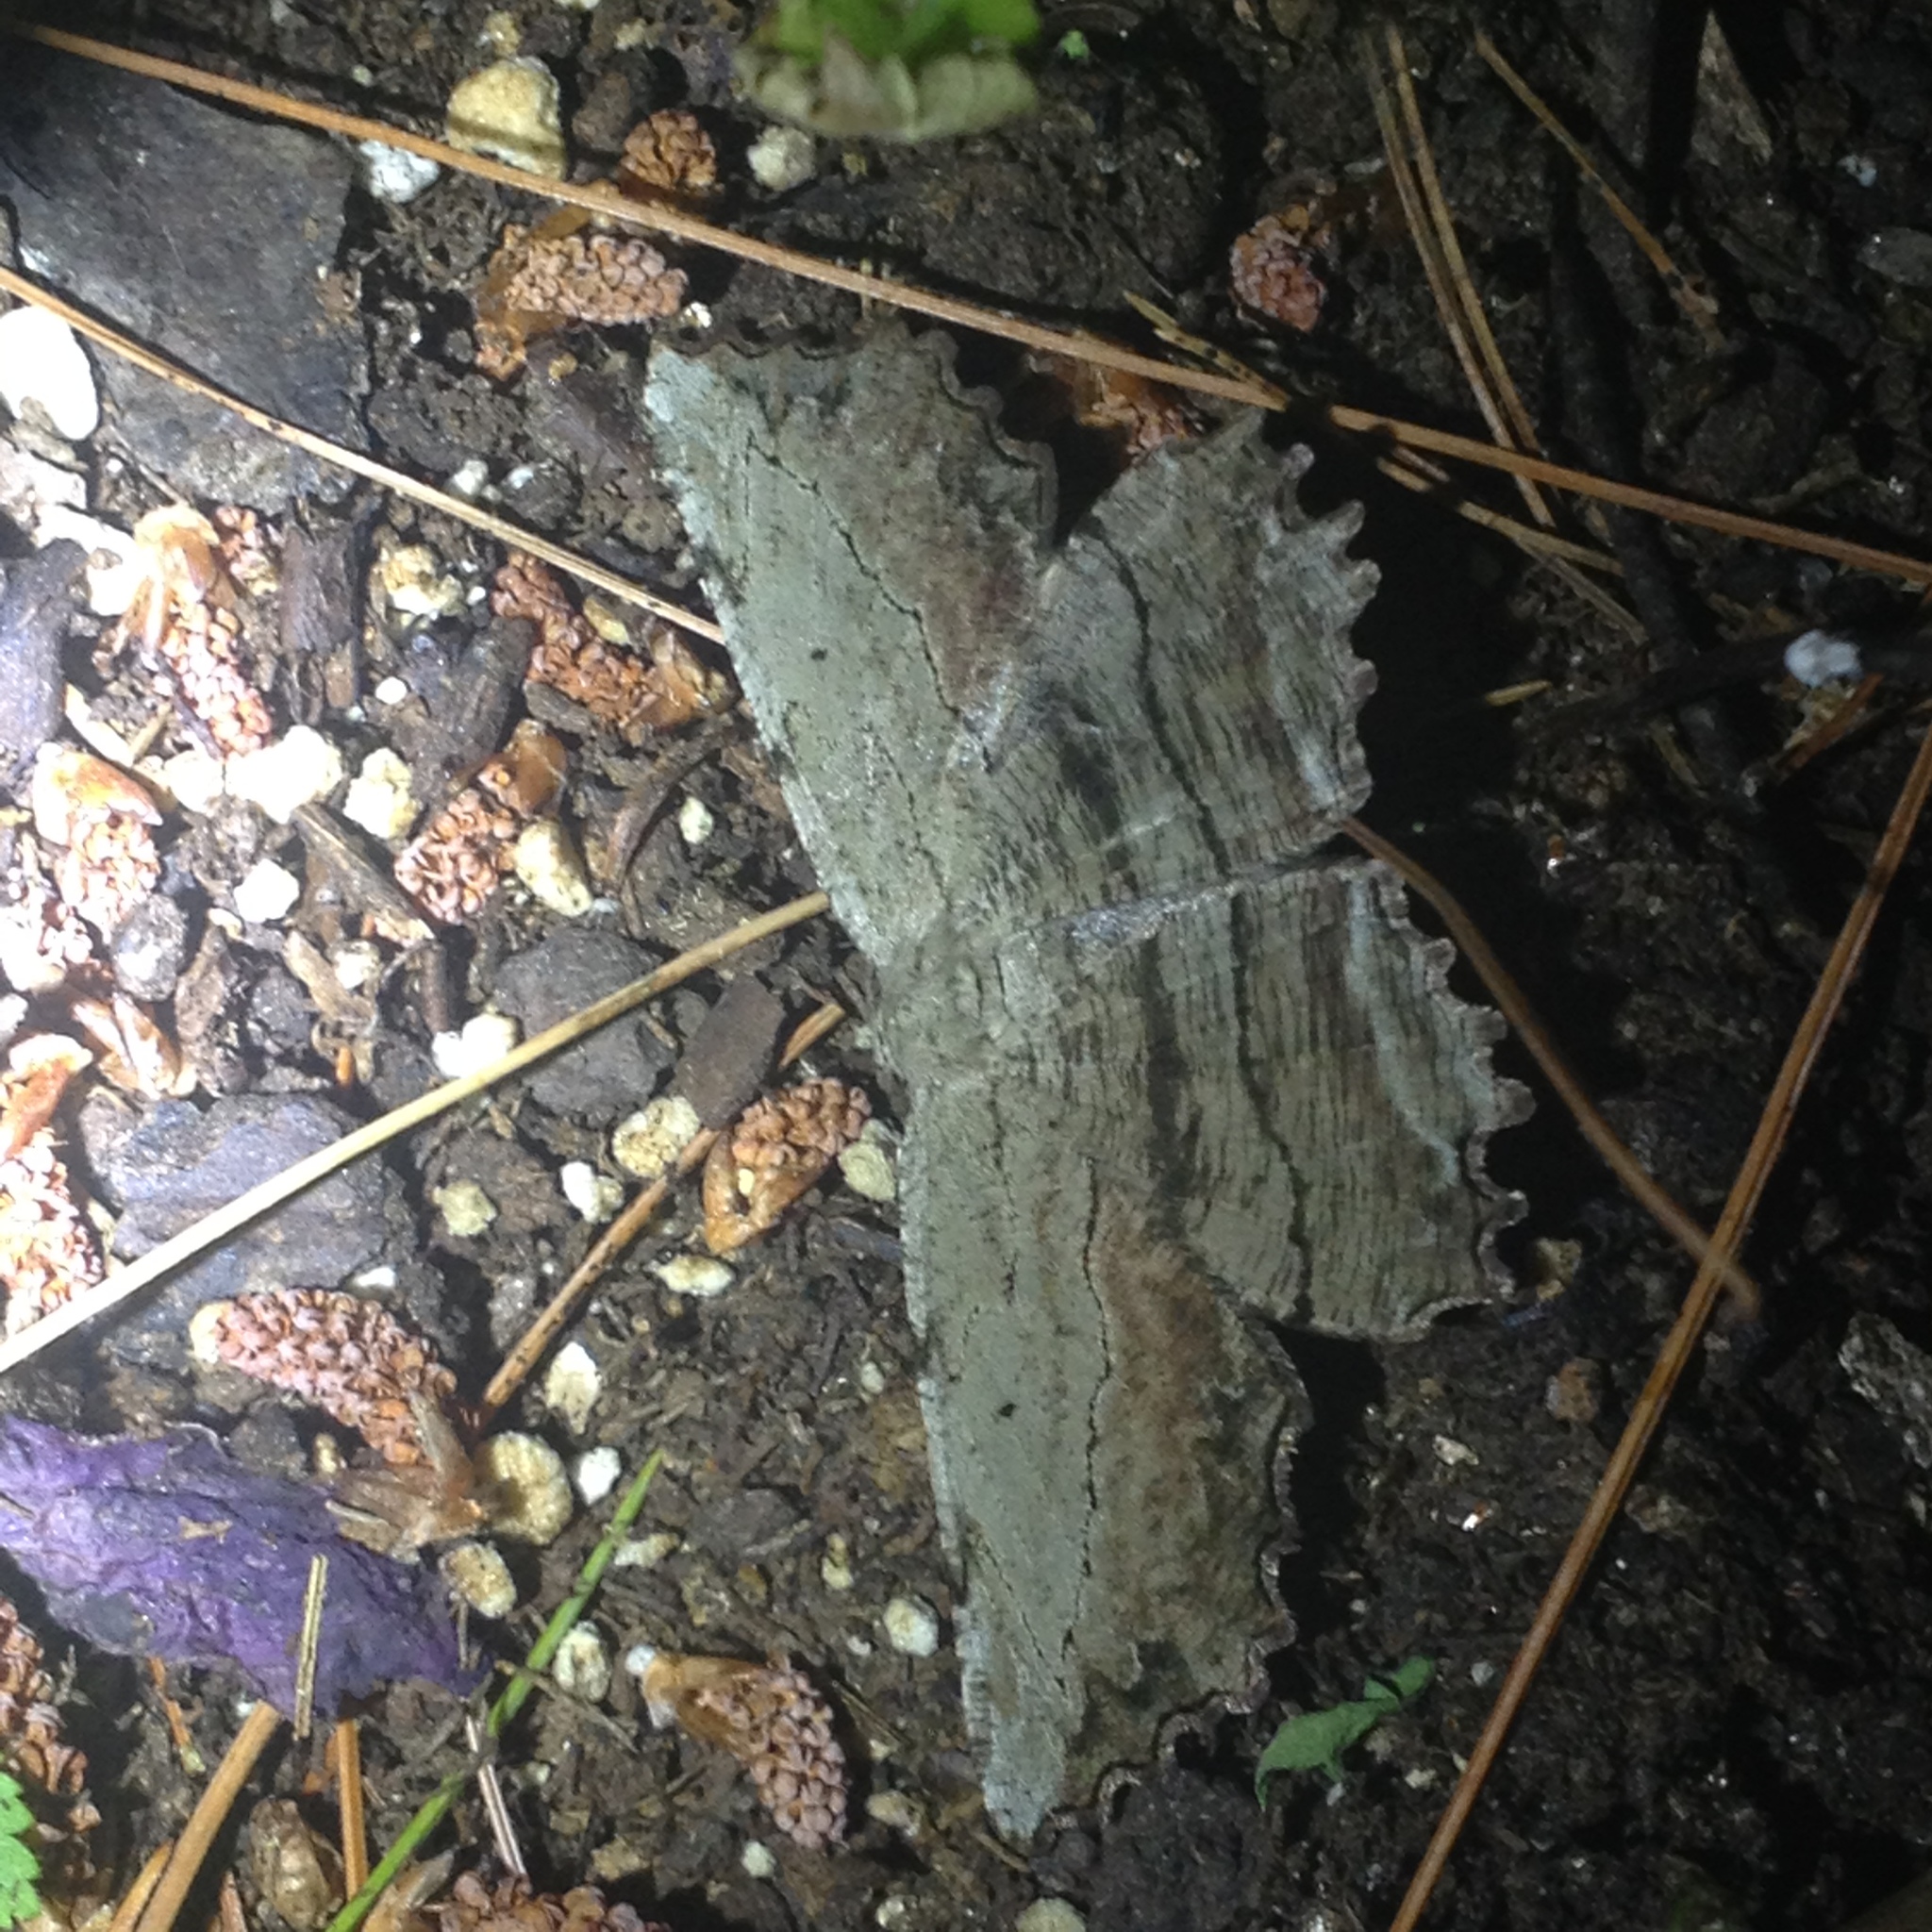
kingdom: Animalia
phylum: Arthropoda
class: Insecta
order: Lepidoptera
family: Geometridae
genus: Lytrosis
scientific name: Lytrosis unitaria
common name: Common lytrosis
